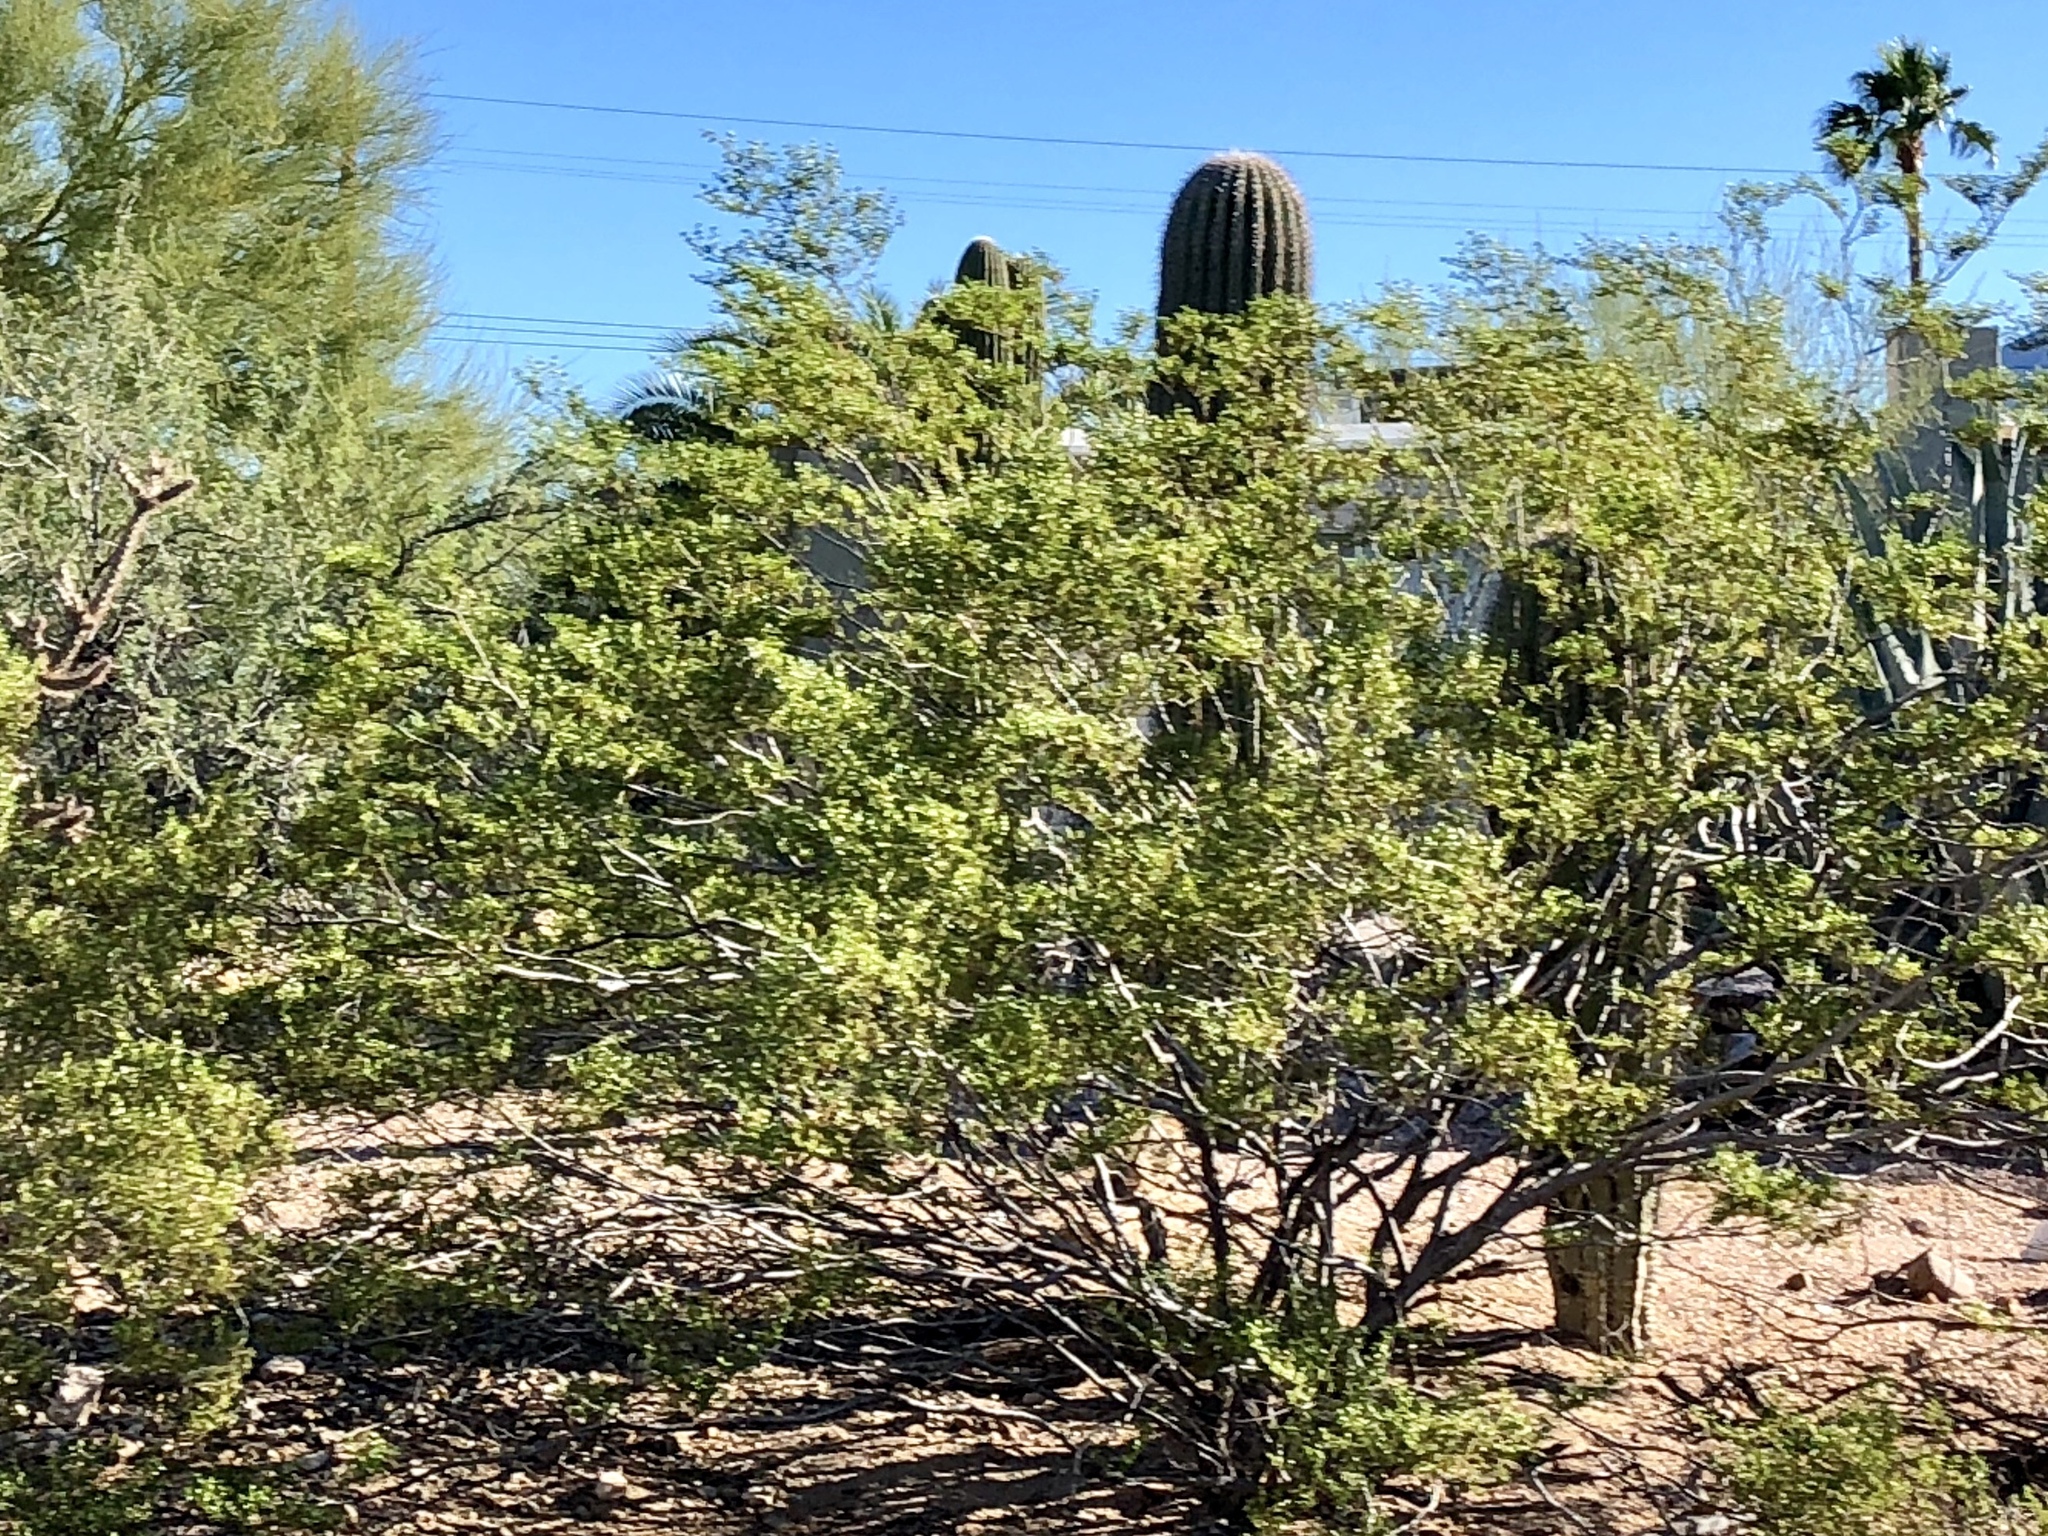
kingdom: Plantae
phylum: Tracheophyta
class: Magnoliopsida
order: Zygophyllales
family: Zygophyllaceae
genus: Larrea
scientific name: Larrea tridentata
